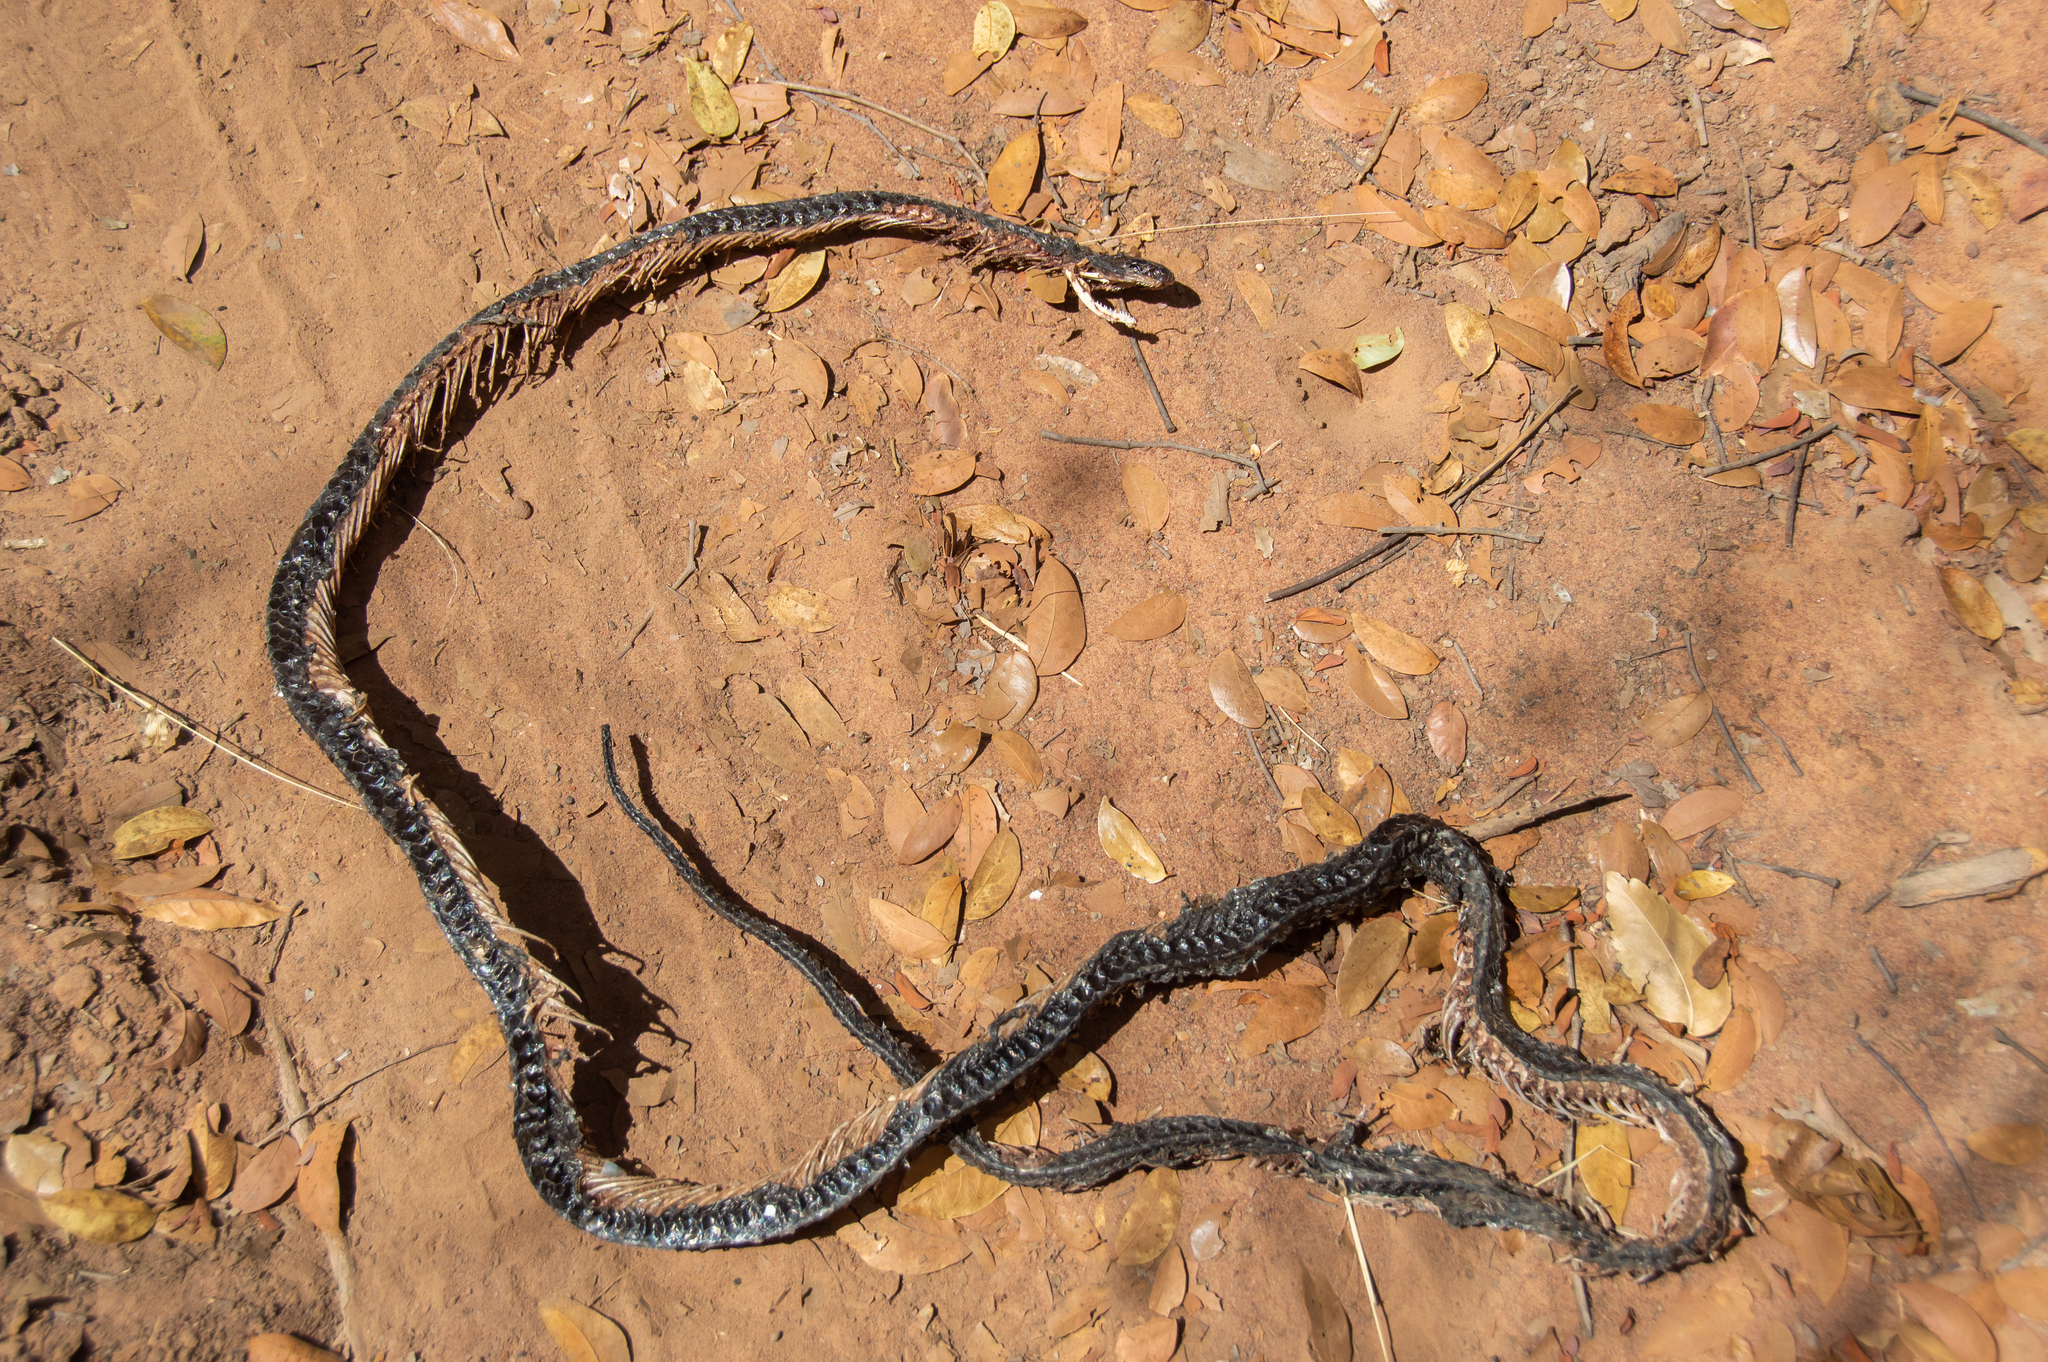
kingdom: Animalia
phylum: Chordata
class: Squamata
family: Colubridae
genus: Chironius
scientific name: Chironius scurrulus
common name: Wagler's sipo
